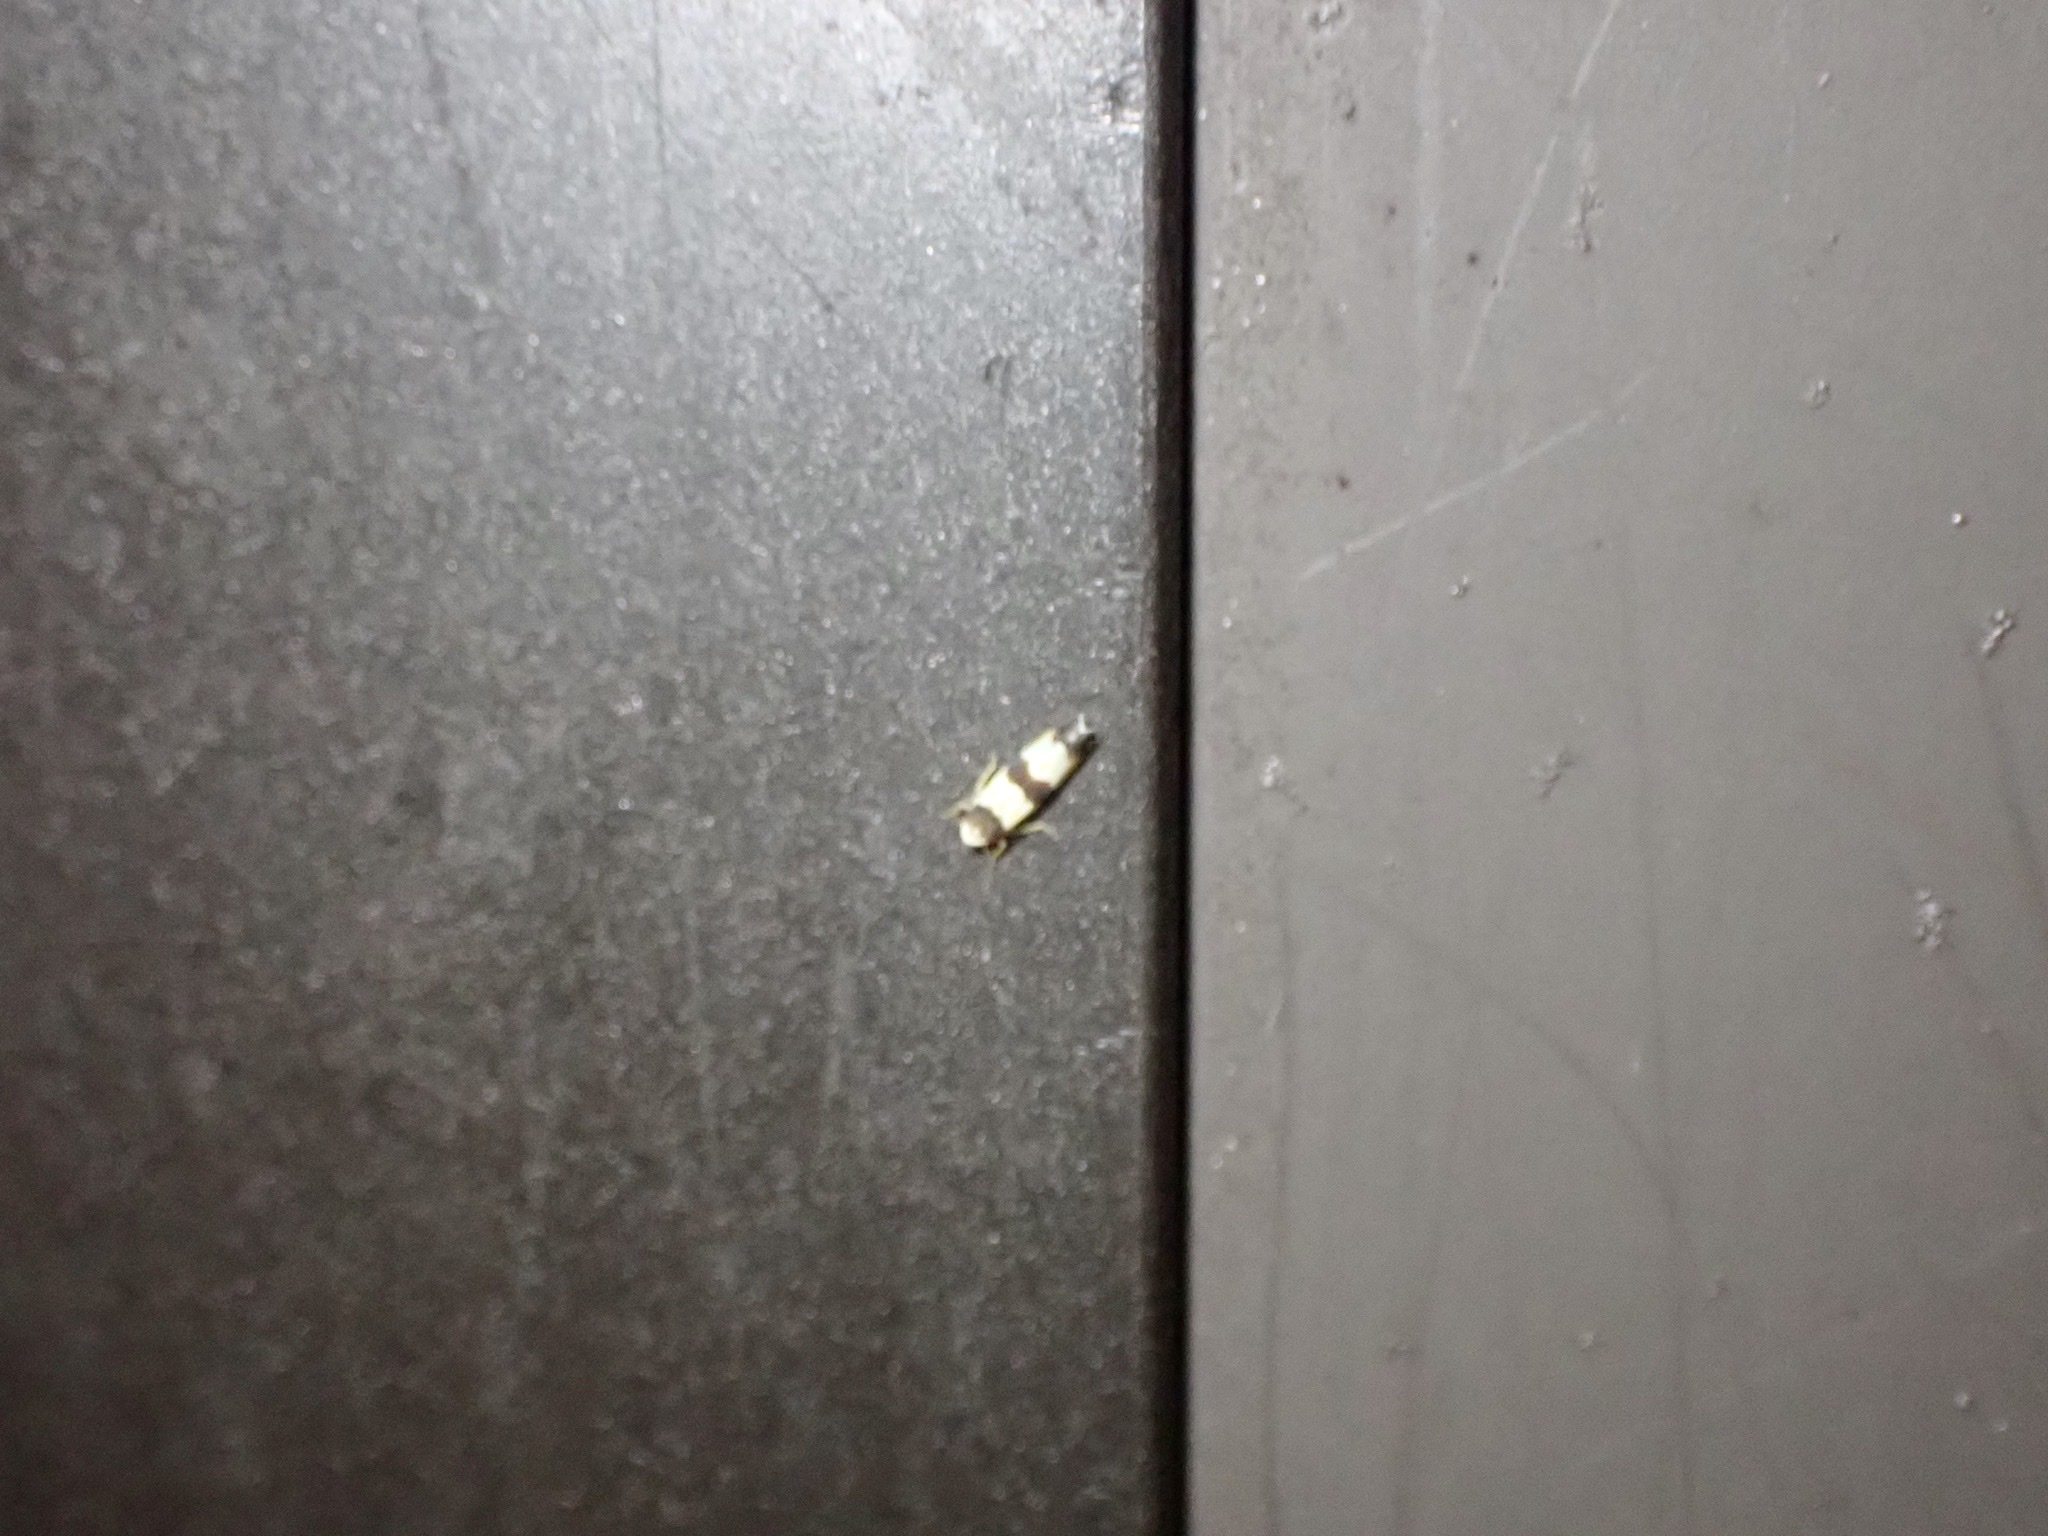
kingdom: Animalia
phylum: Arthropoda
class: Insecta
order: Hemiptera
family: Cicadellidae
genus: Erythroneura
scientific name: Erythroneura tricincta
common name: The threebanded grape leafhopper
